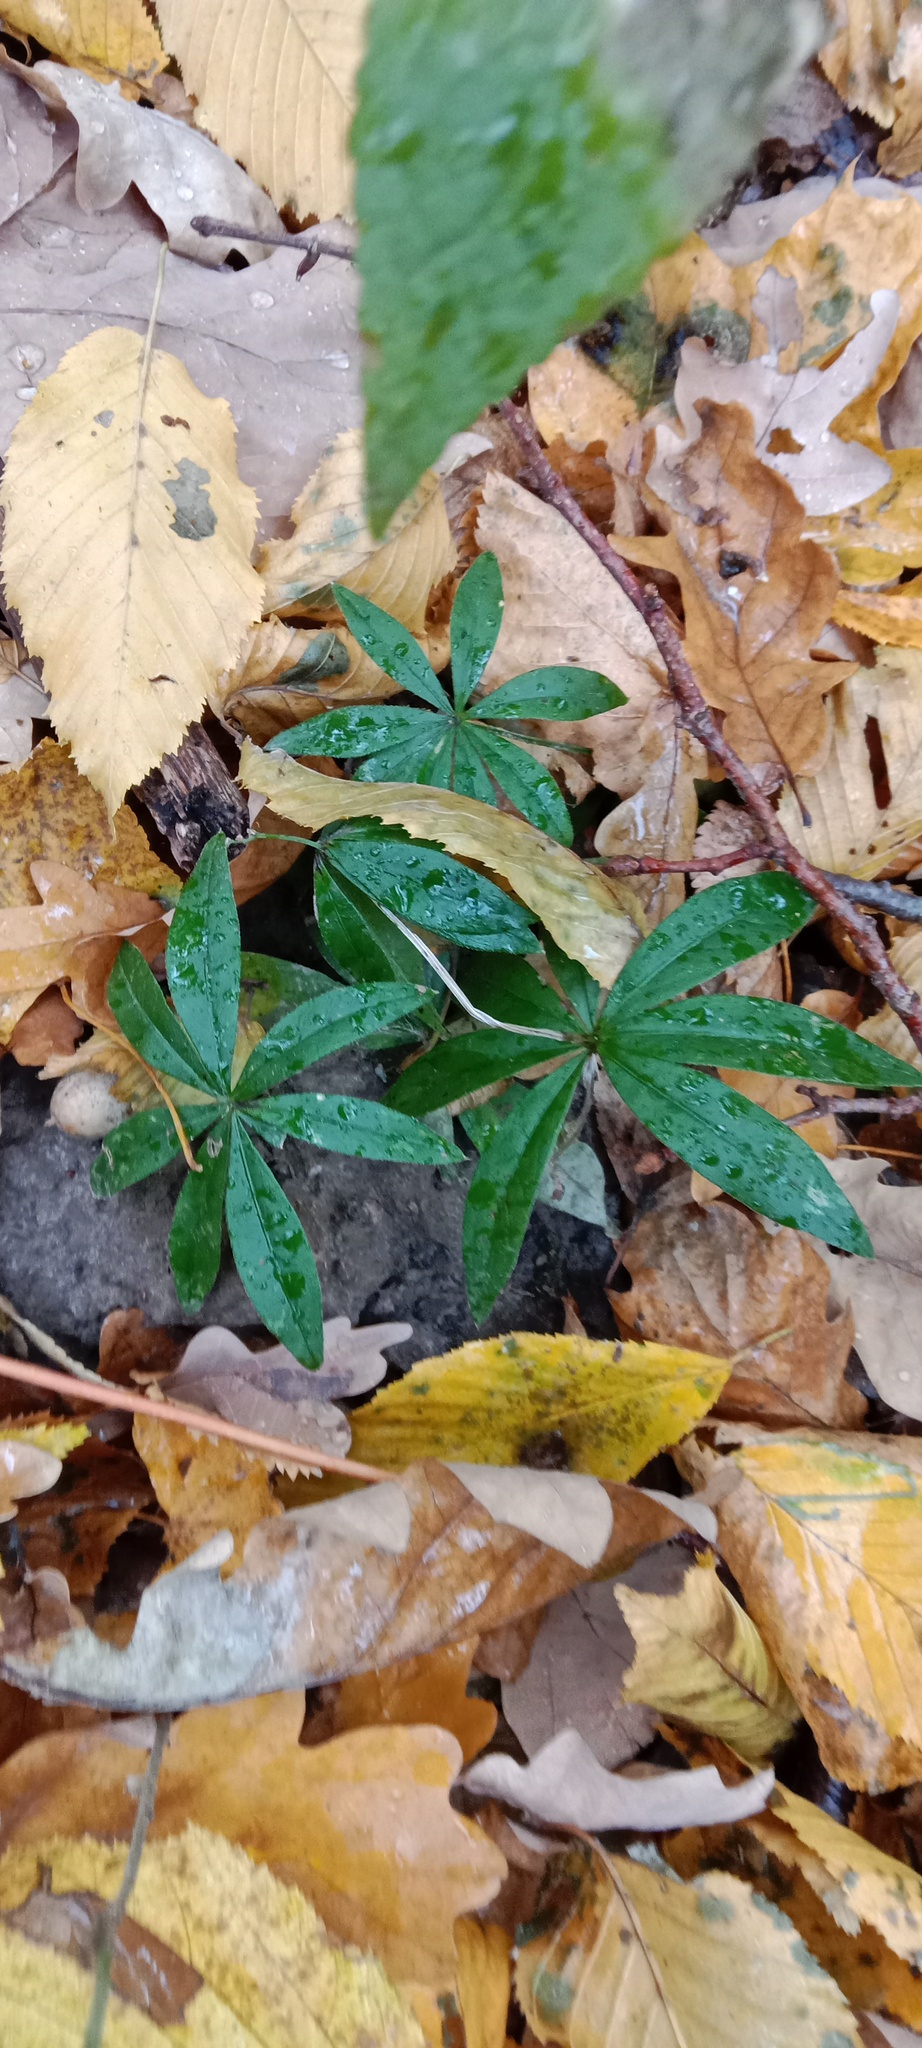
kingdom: Plantae
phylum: Tracheophyta
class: Magnoliopsida
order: Gentianales
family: Rubiaceae
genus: Galium
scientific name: Galium odoratum
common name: Sweet woodruff
